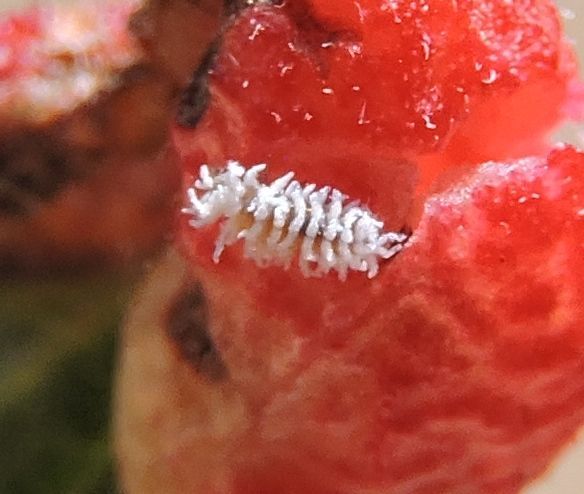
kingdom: Animalia
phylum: Arthropoda
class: Insecta
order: Coleoptera
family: Coccinellidae
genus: Cryptolaemus
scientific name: Cryptolaemus montrouzieri
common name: Mealybug destroyer
